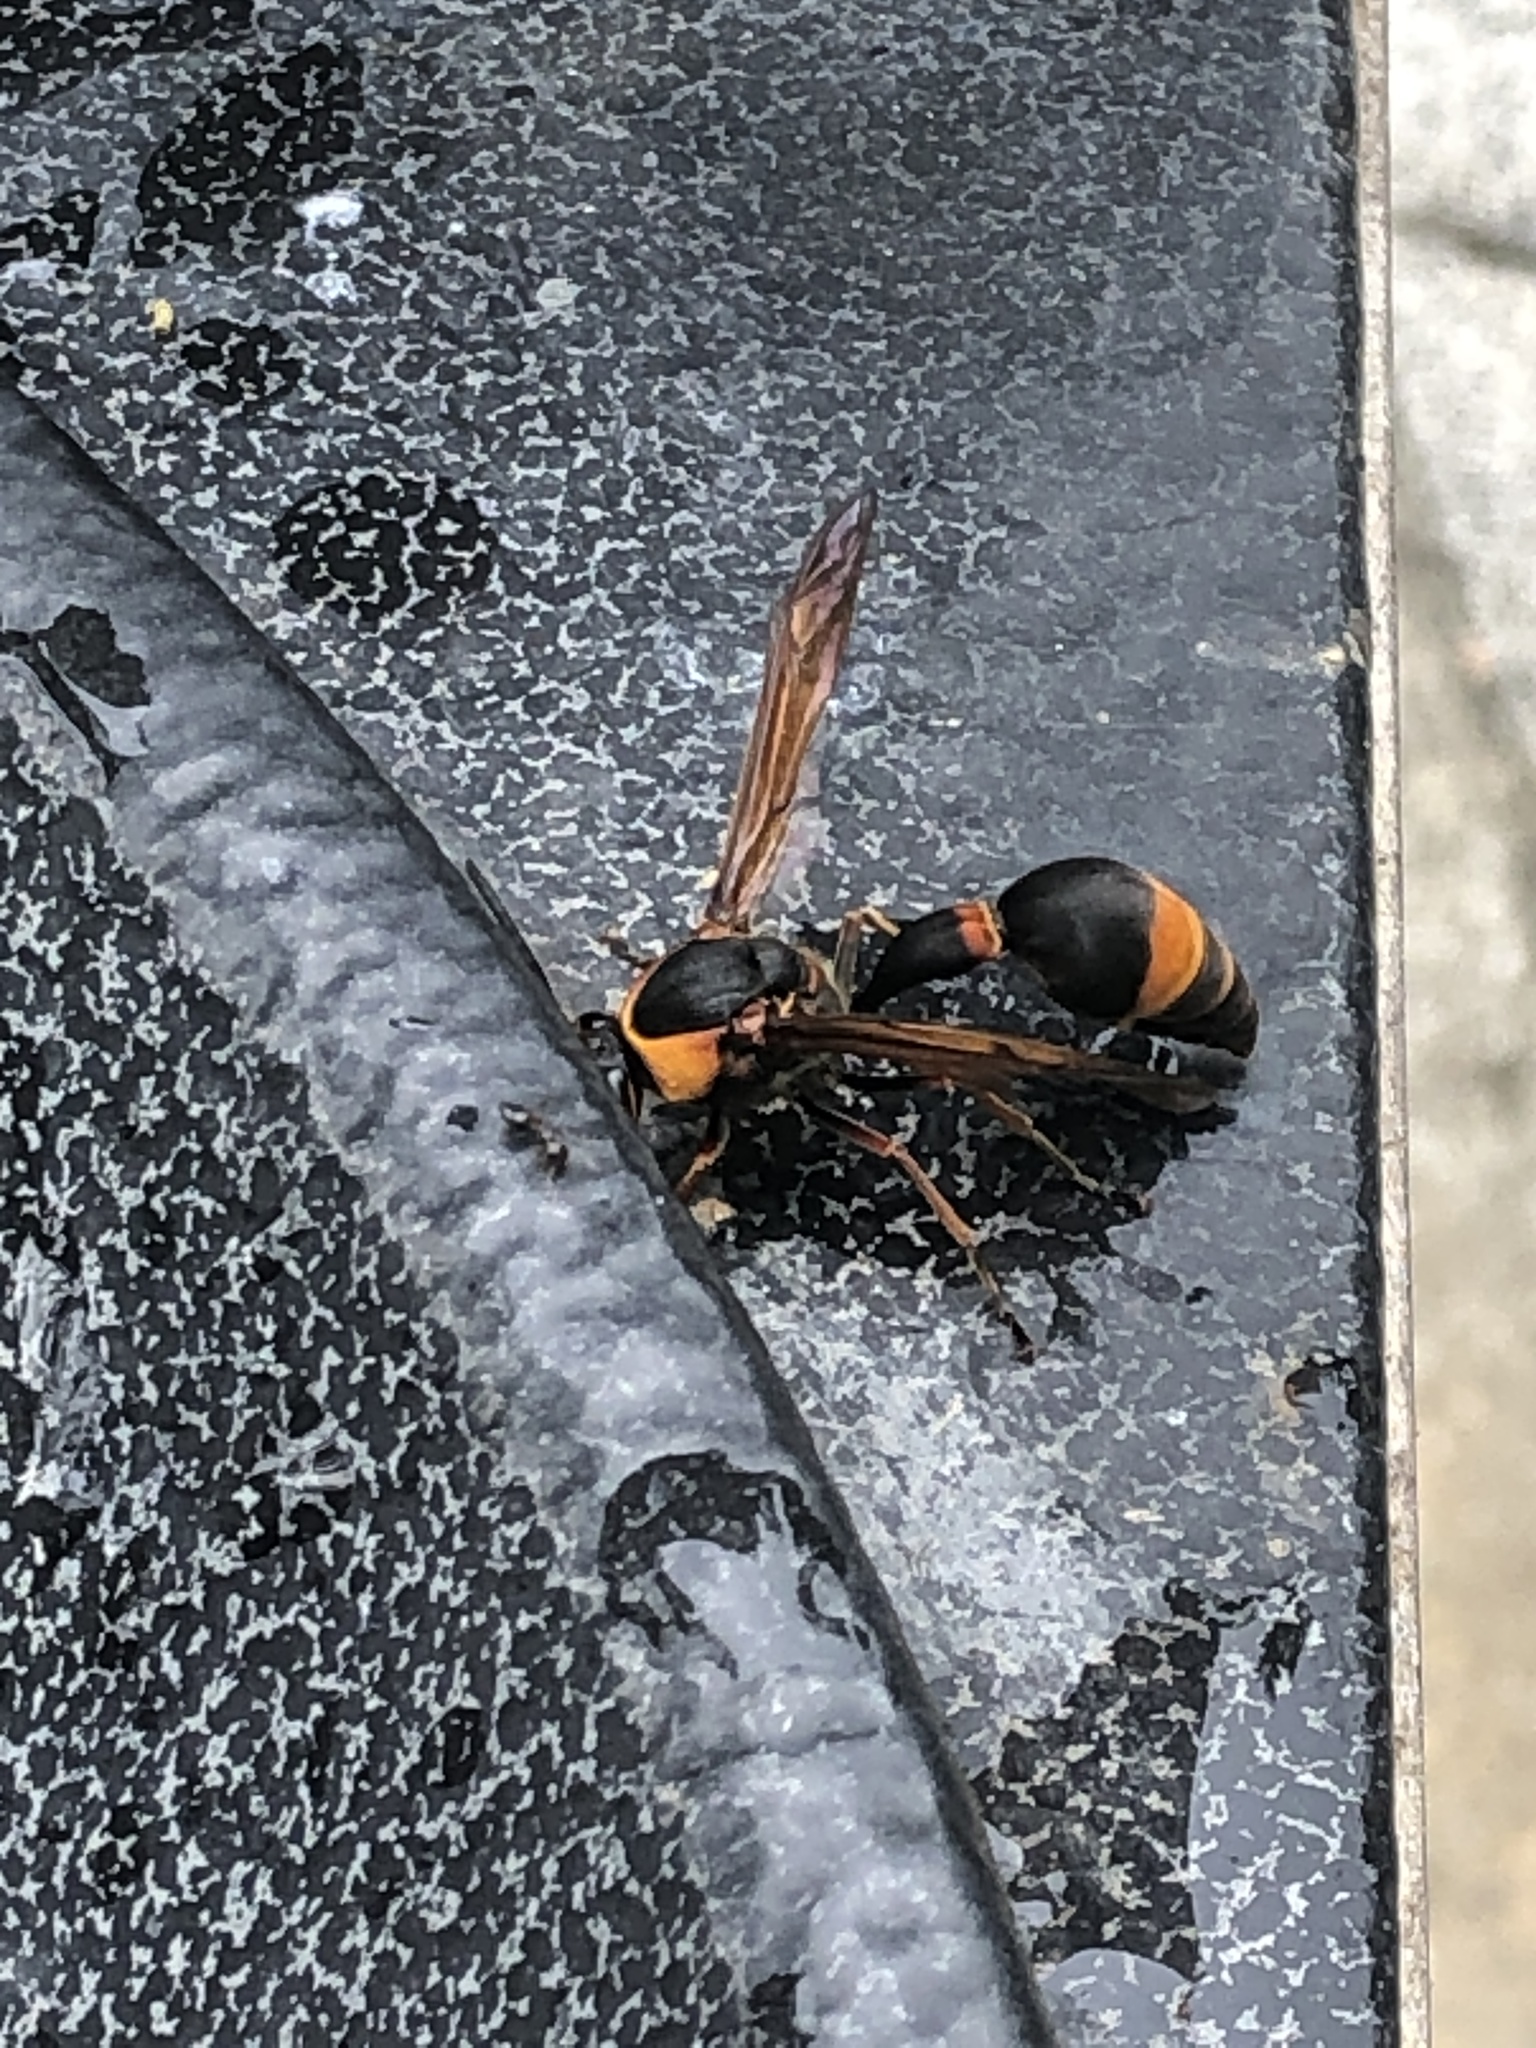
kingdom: Animalia
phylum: Arthropoda
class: Insecta
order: Hymenoptera
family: Eumenidae
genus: Oreumenes
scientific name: Oreumenes decoratus
